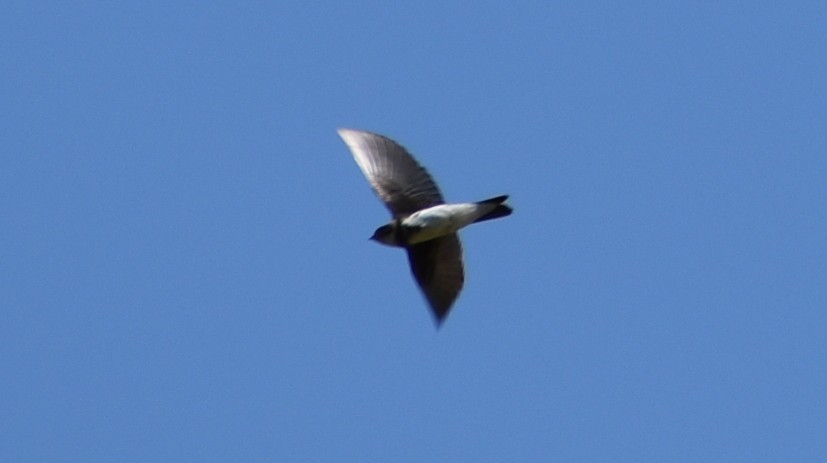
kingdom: Animalia
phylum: Chordata
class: Aves
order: Passeriformes
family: Hirundinidae
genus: Riparia
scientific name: Riparia riparia
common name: Sand martin
